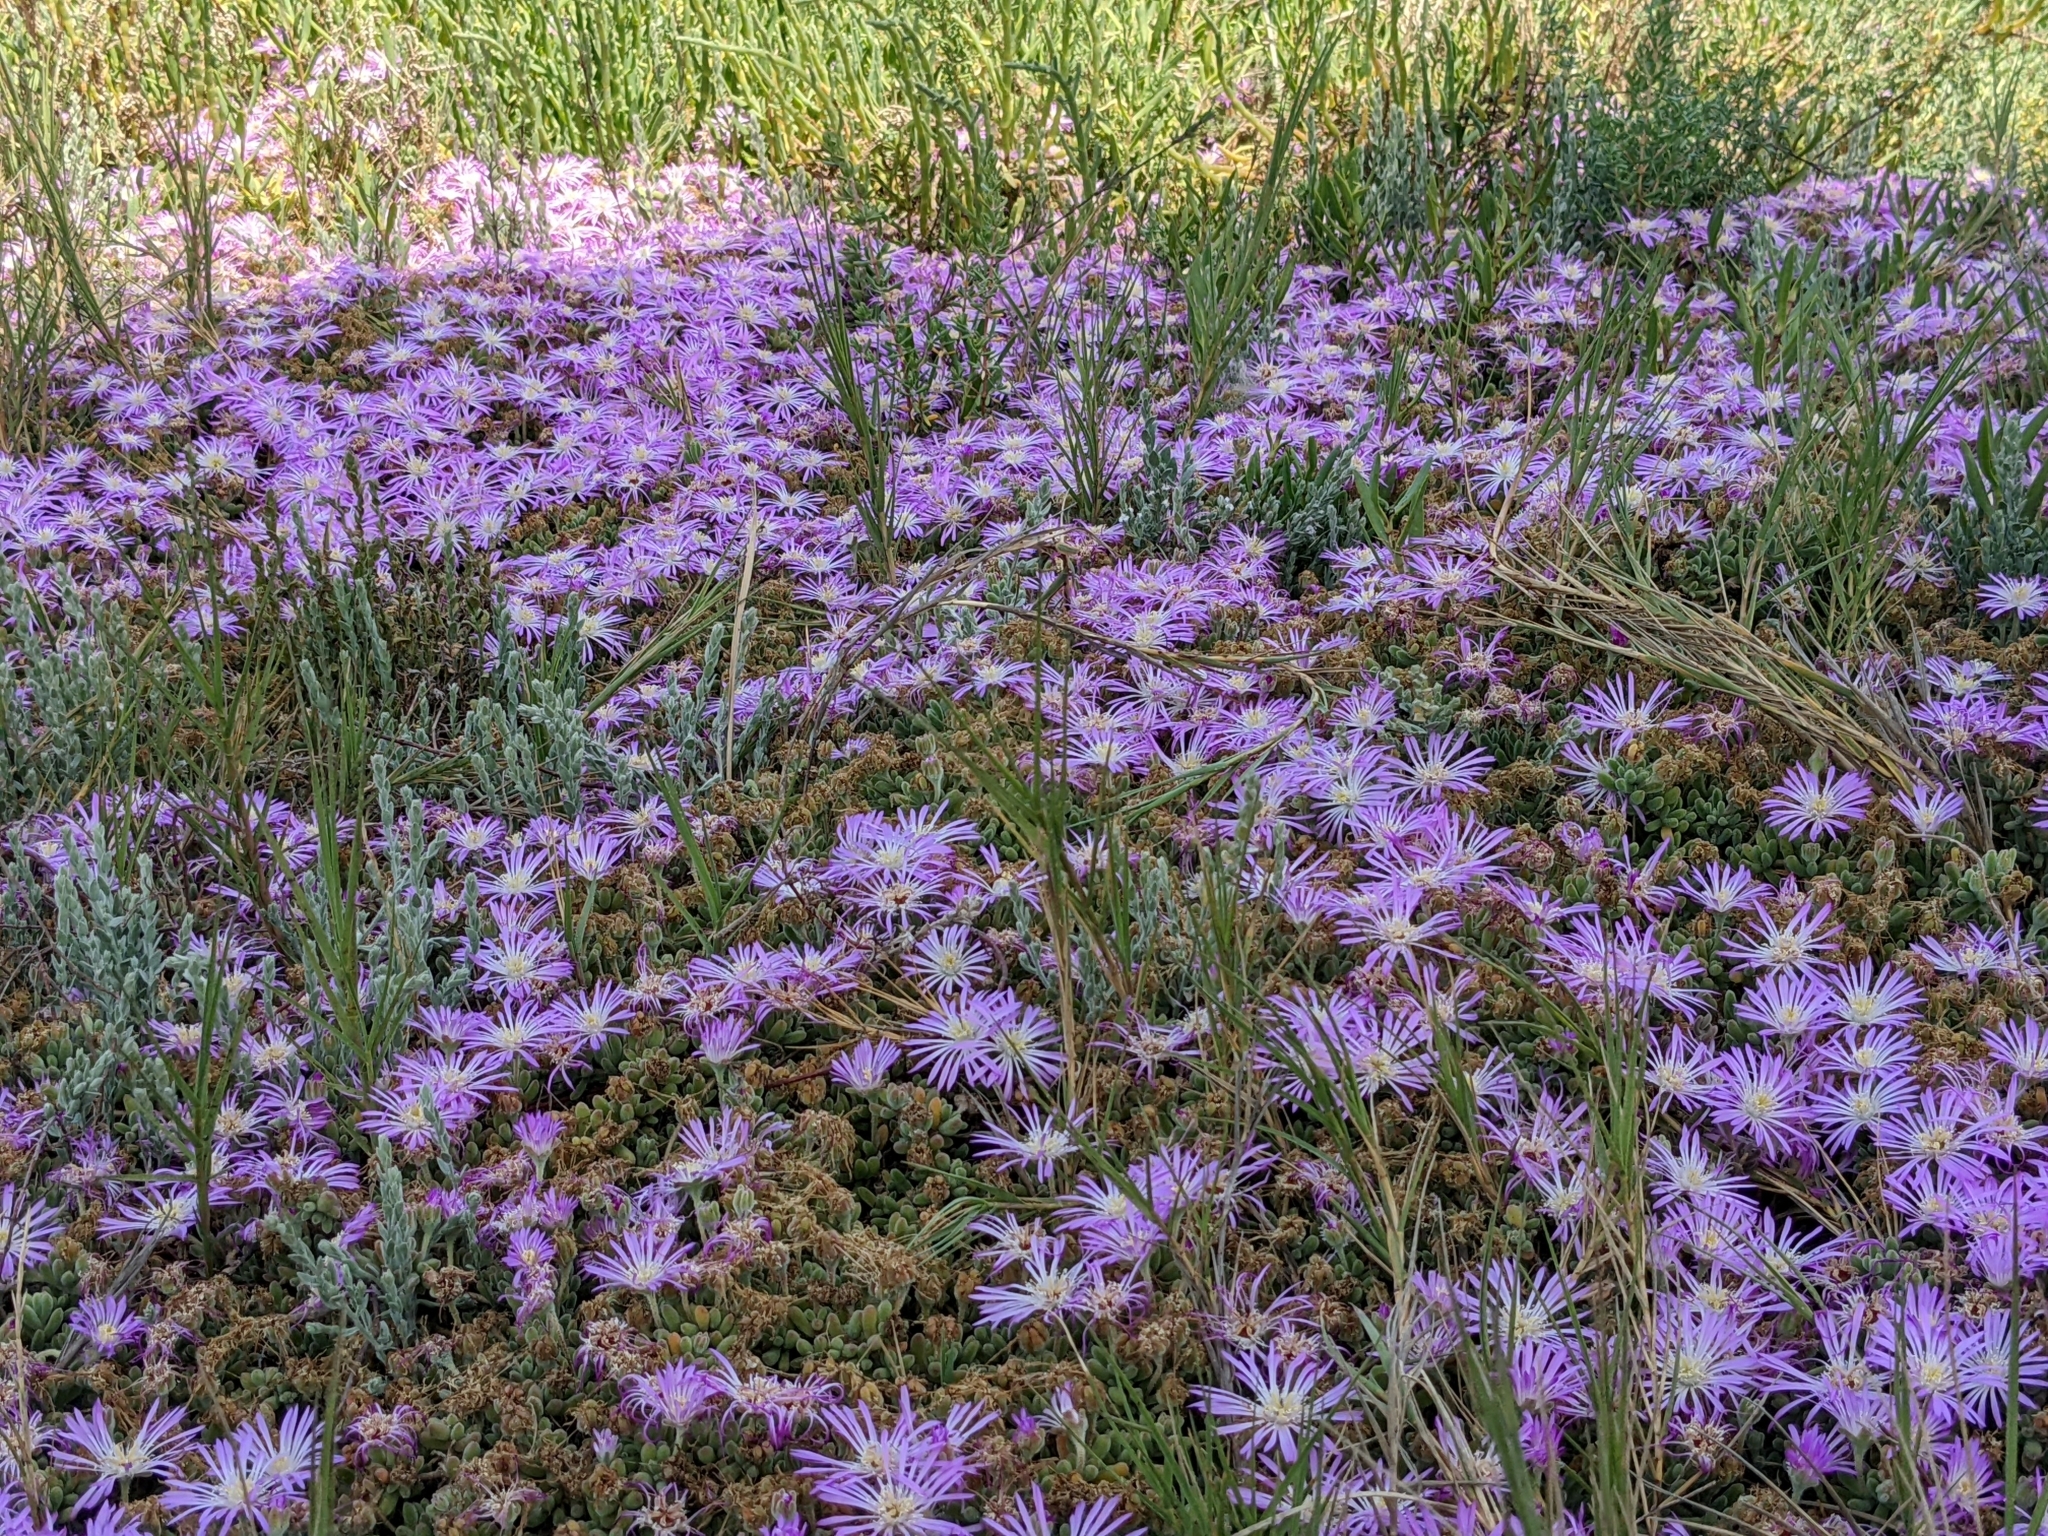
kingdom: Plantae
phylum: Tracheophyta
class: Magnoliopsida
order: Caryophyllales
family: Aizoaceae
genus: Drosanthemum
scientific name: Drosanthemum floribundum
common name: Pale dewplant
